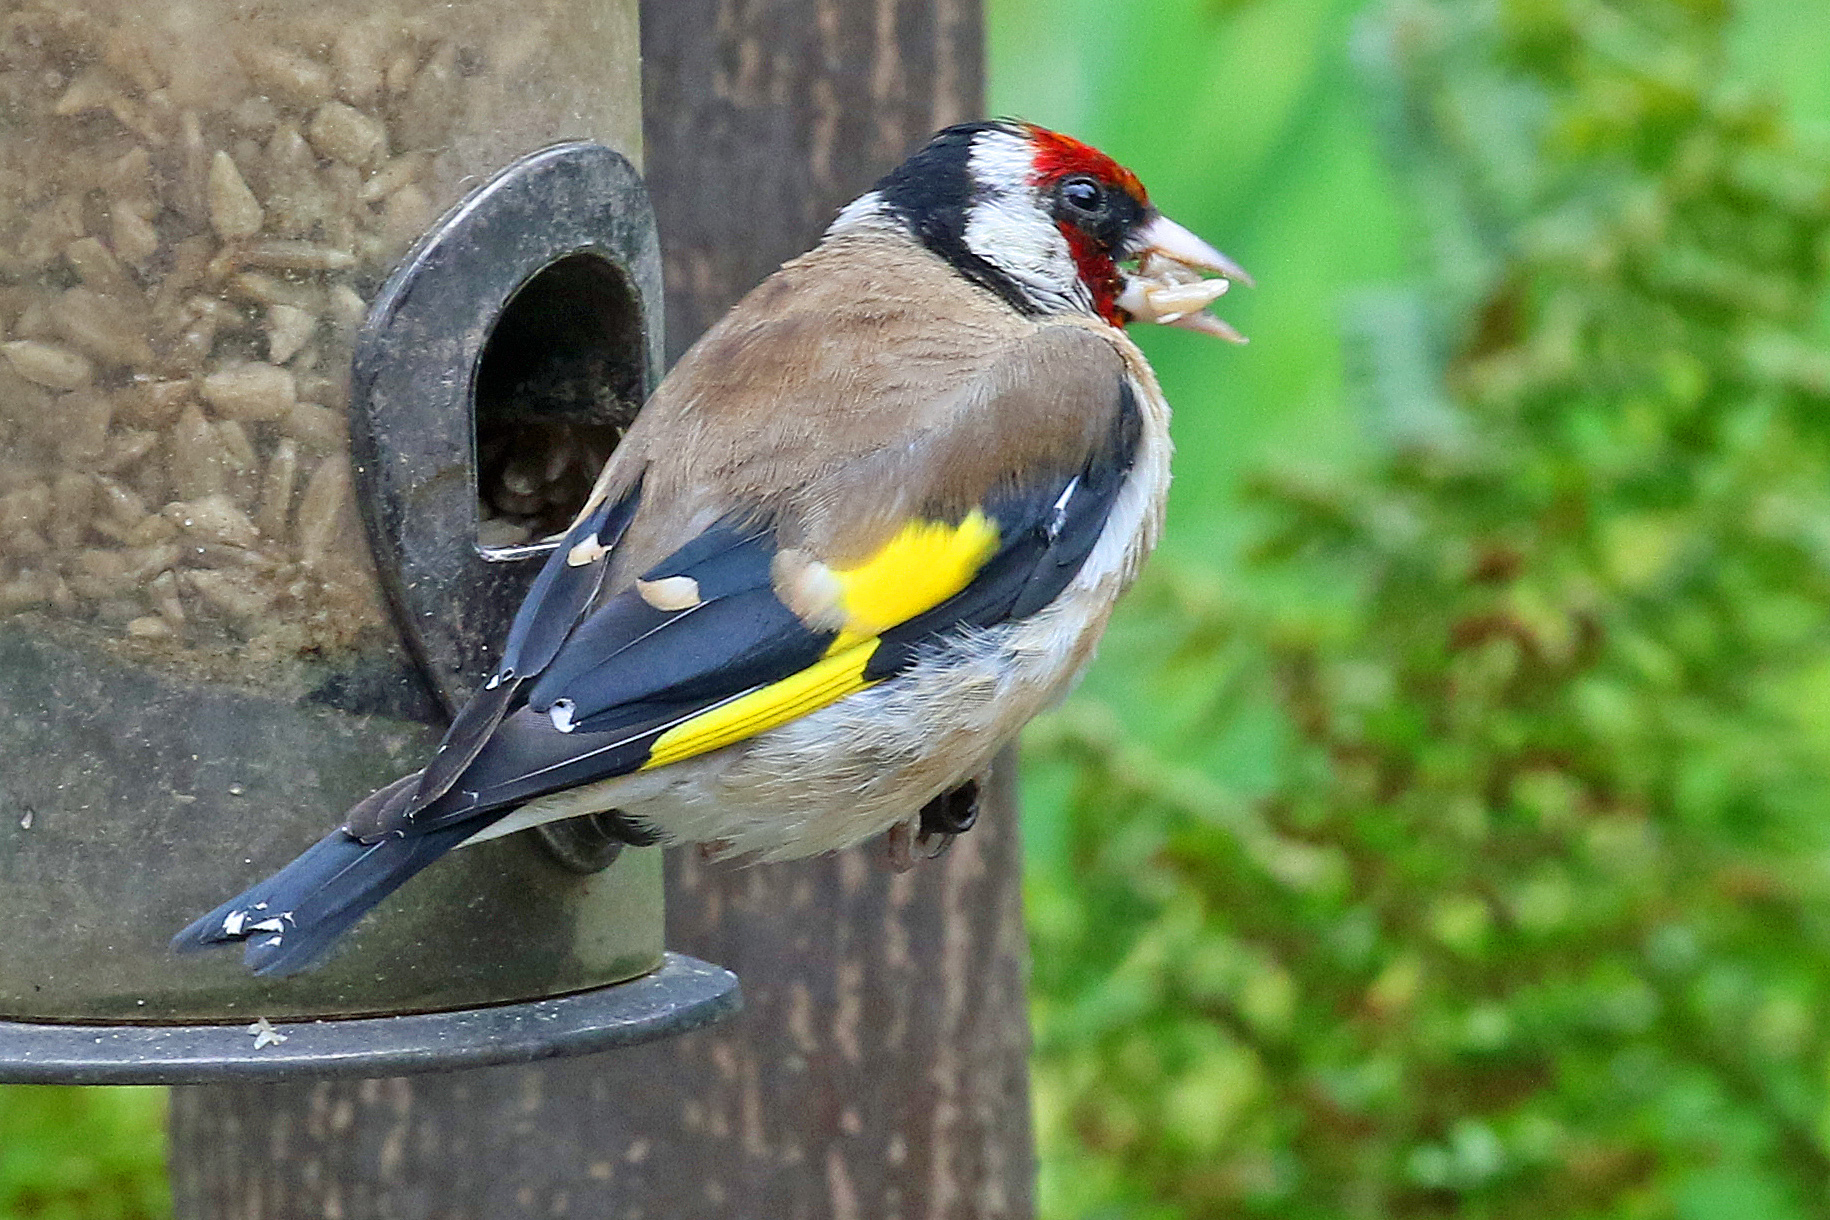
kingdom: Animalia
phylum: Chordata
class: Aves
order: Passeriformes
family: Fringillidae
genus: Carduelis
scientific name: Carduelis carduelis
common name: European goldfinch
